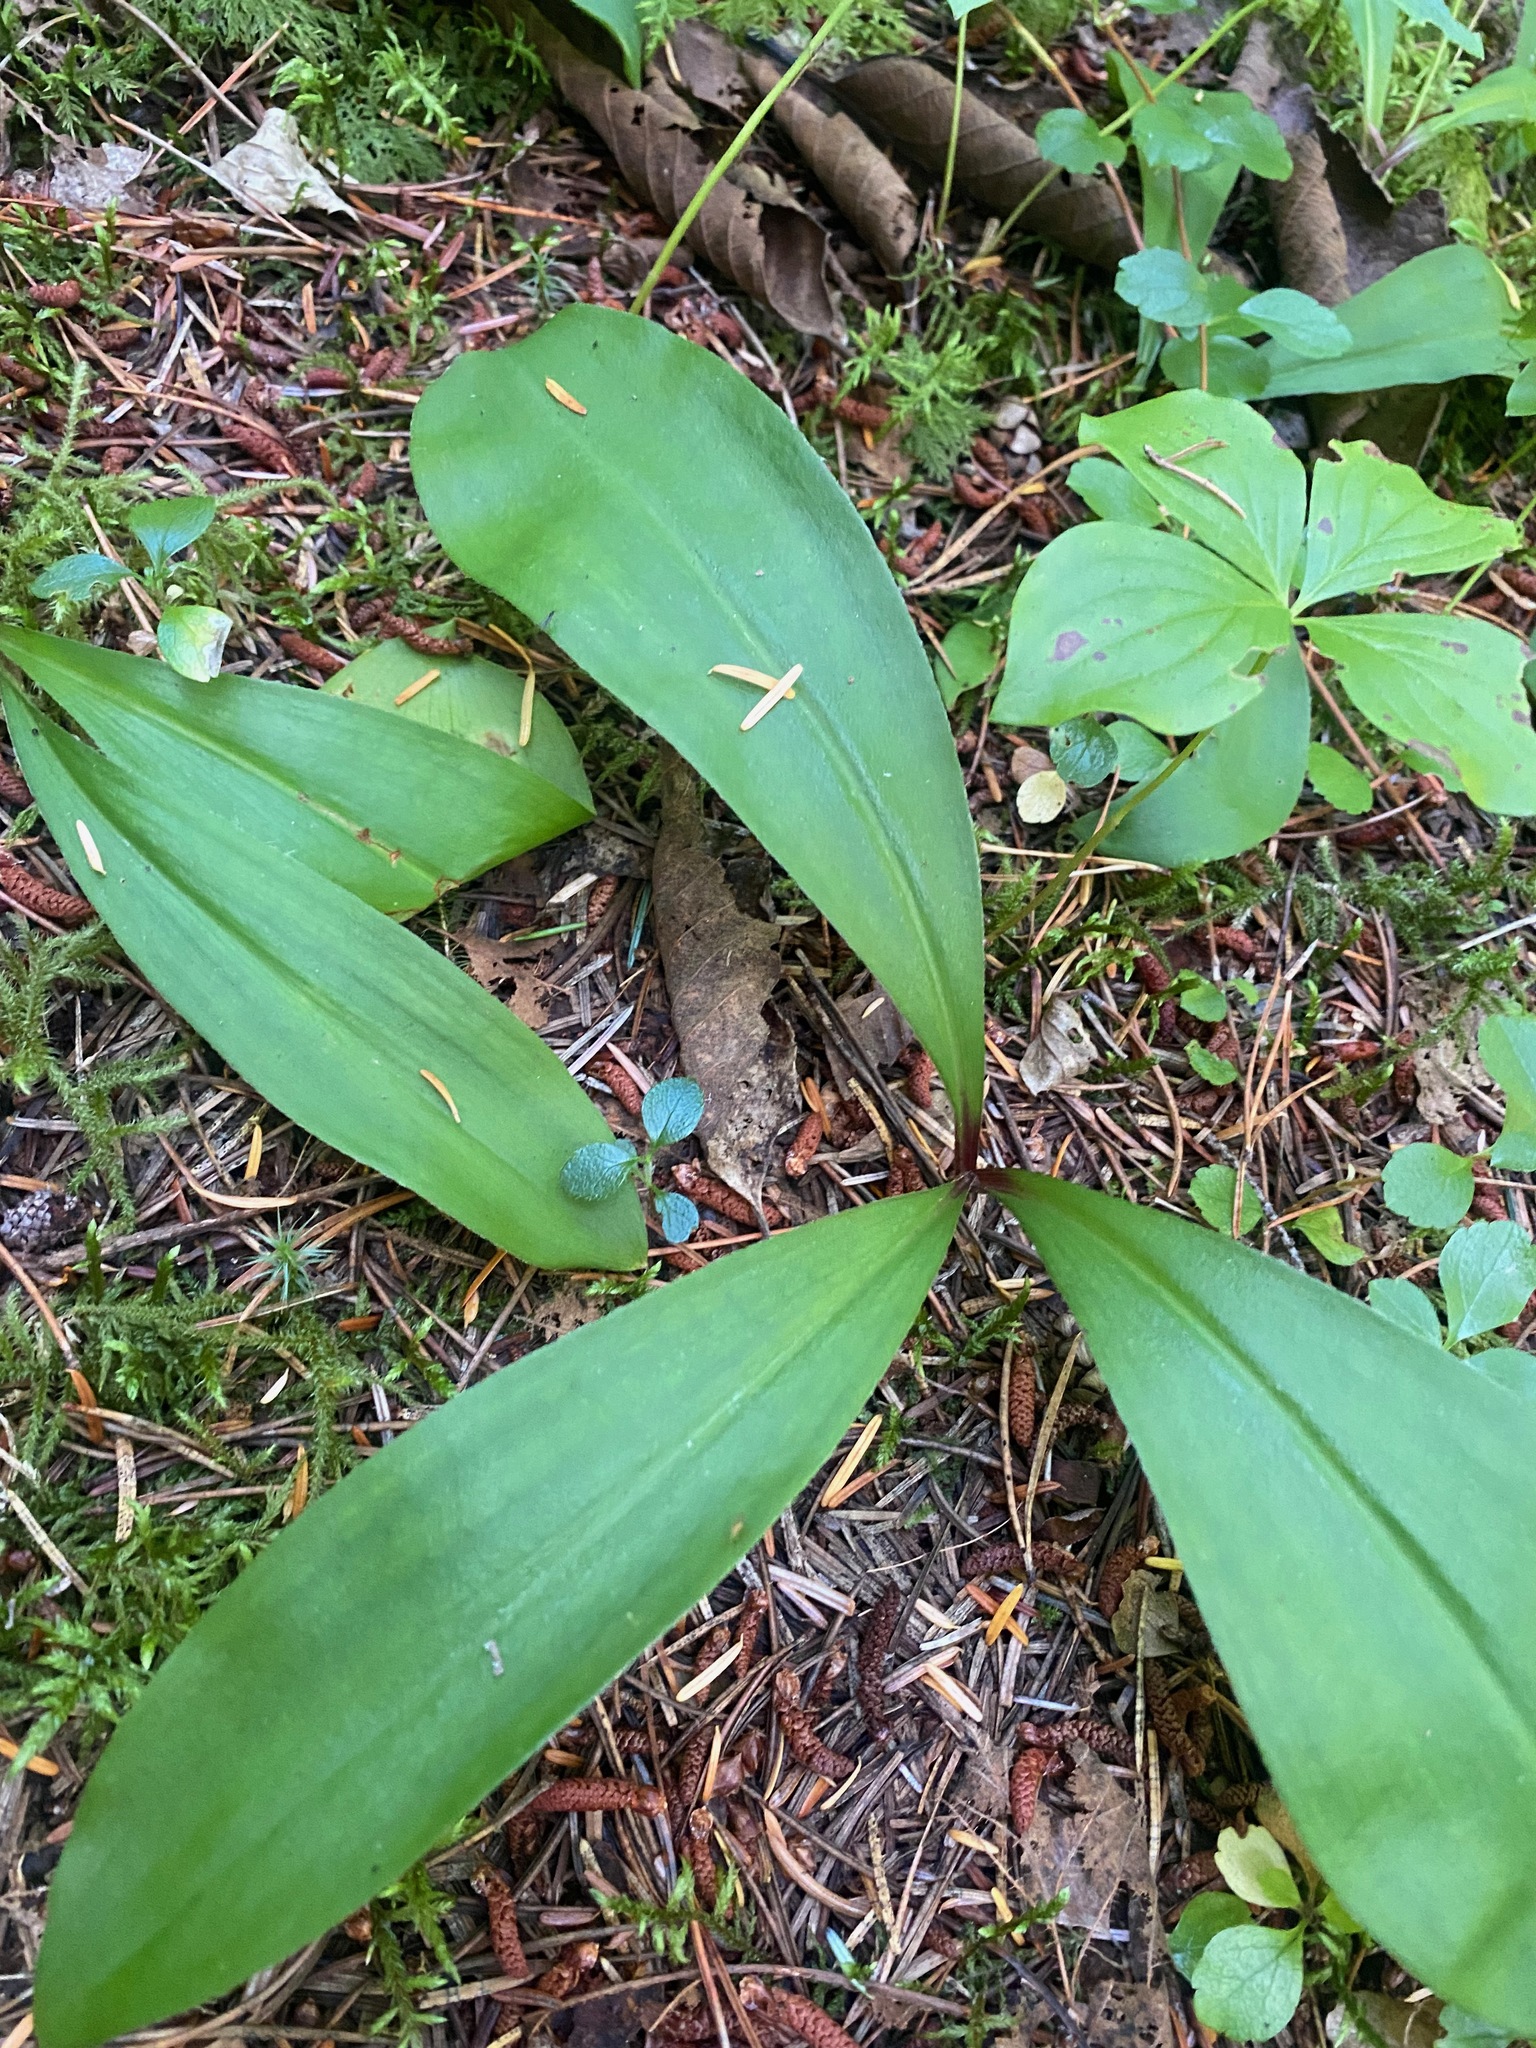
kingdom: Plantae
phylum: Tracheophyta
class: Liliopsida
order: Liliales
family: Liliaceae
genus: Clintonia
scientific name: Clintonia uniflora
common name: Queen's cup
